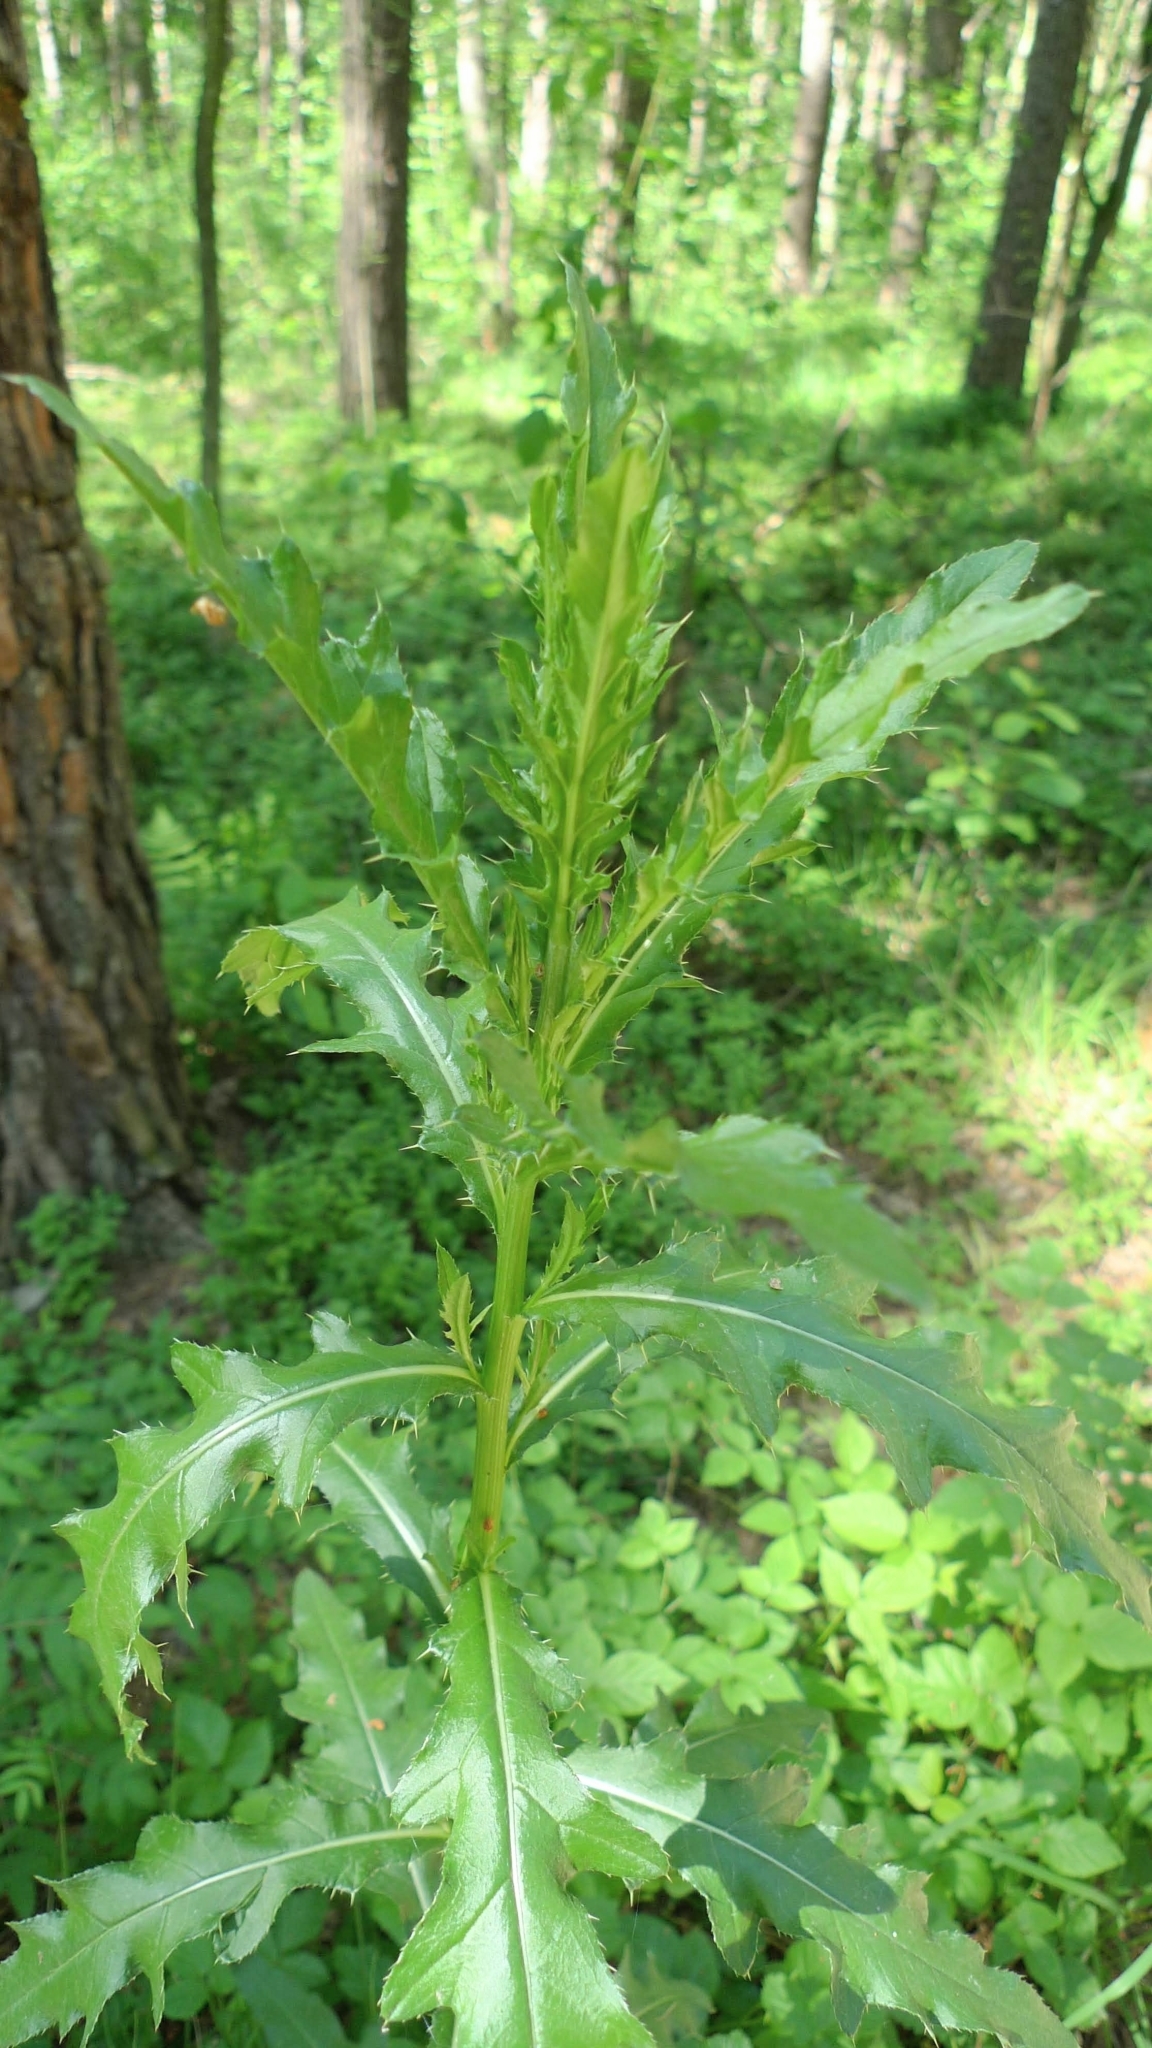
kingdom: Plantae
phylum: Tracheophyta
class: Magnoliopsida
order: Asterales
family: Asteraceae
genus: Cirsium
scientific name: Cirsium arvense
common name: Creeping thistle
